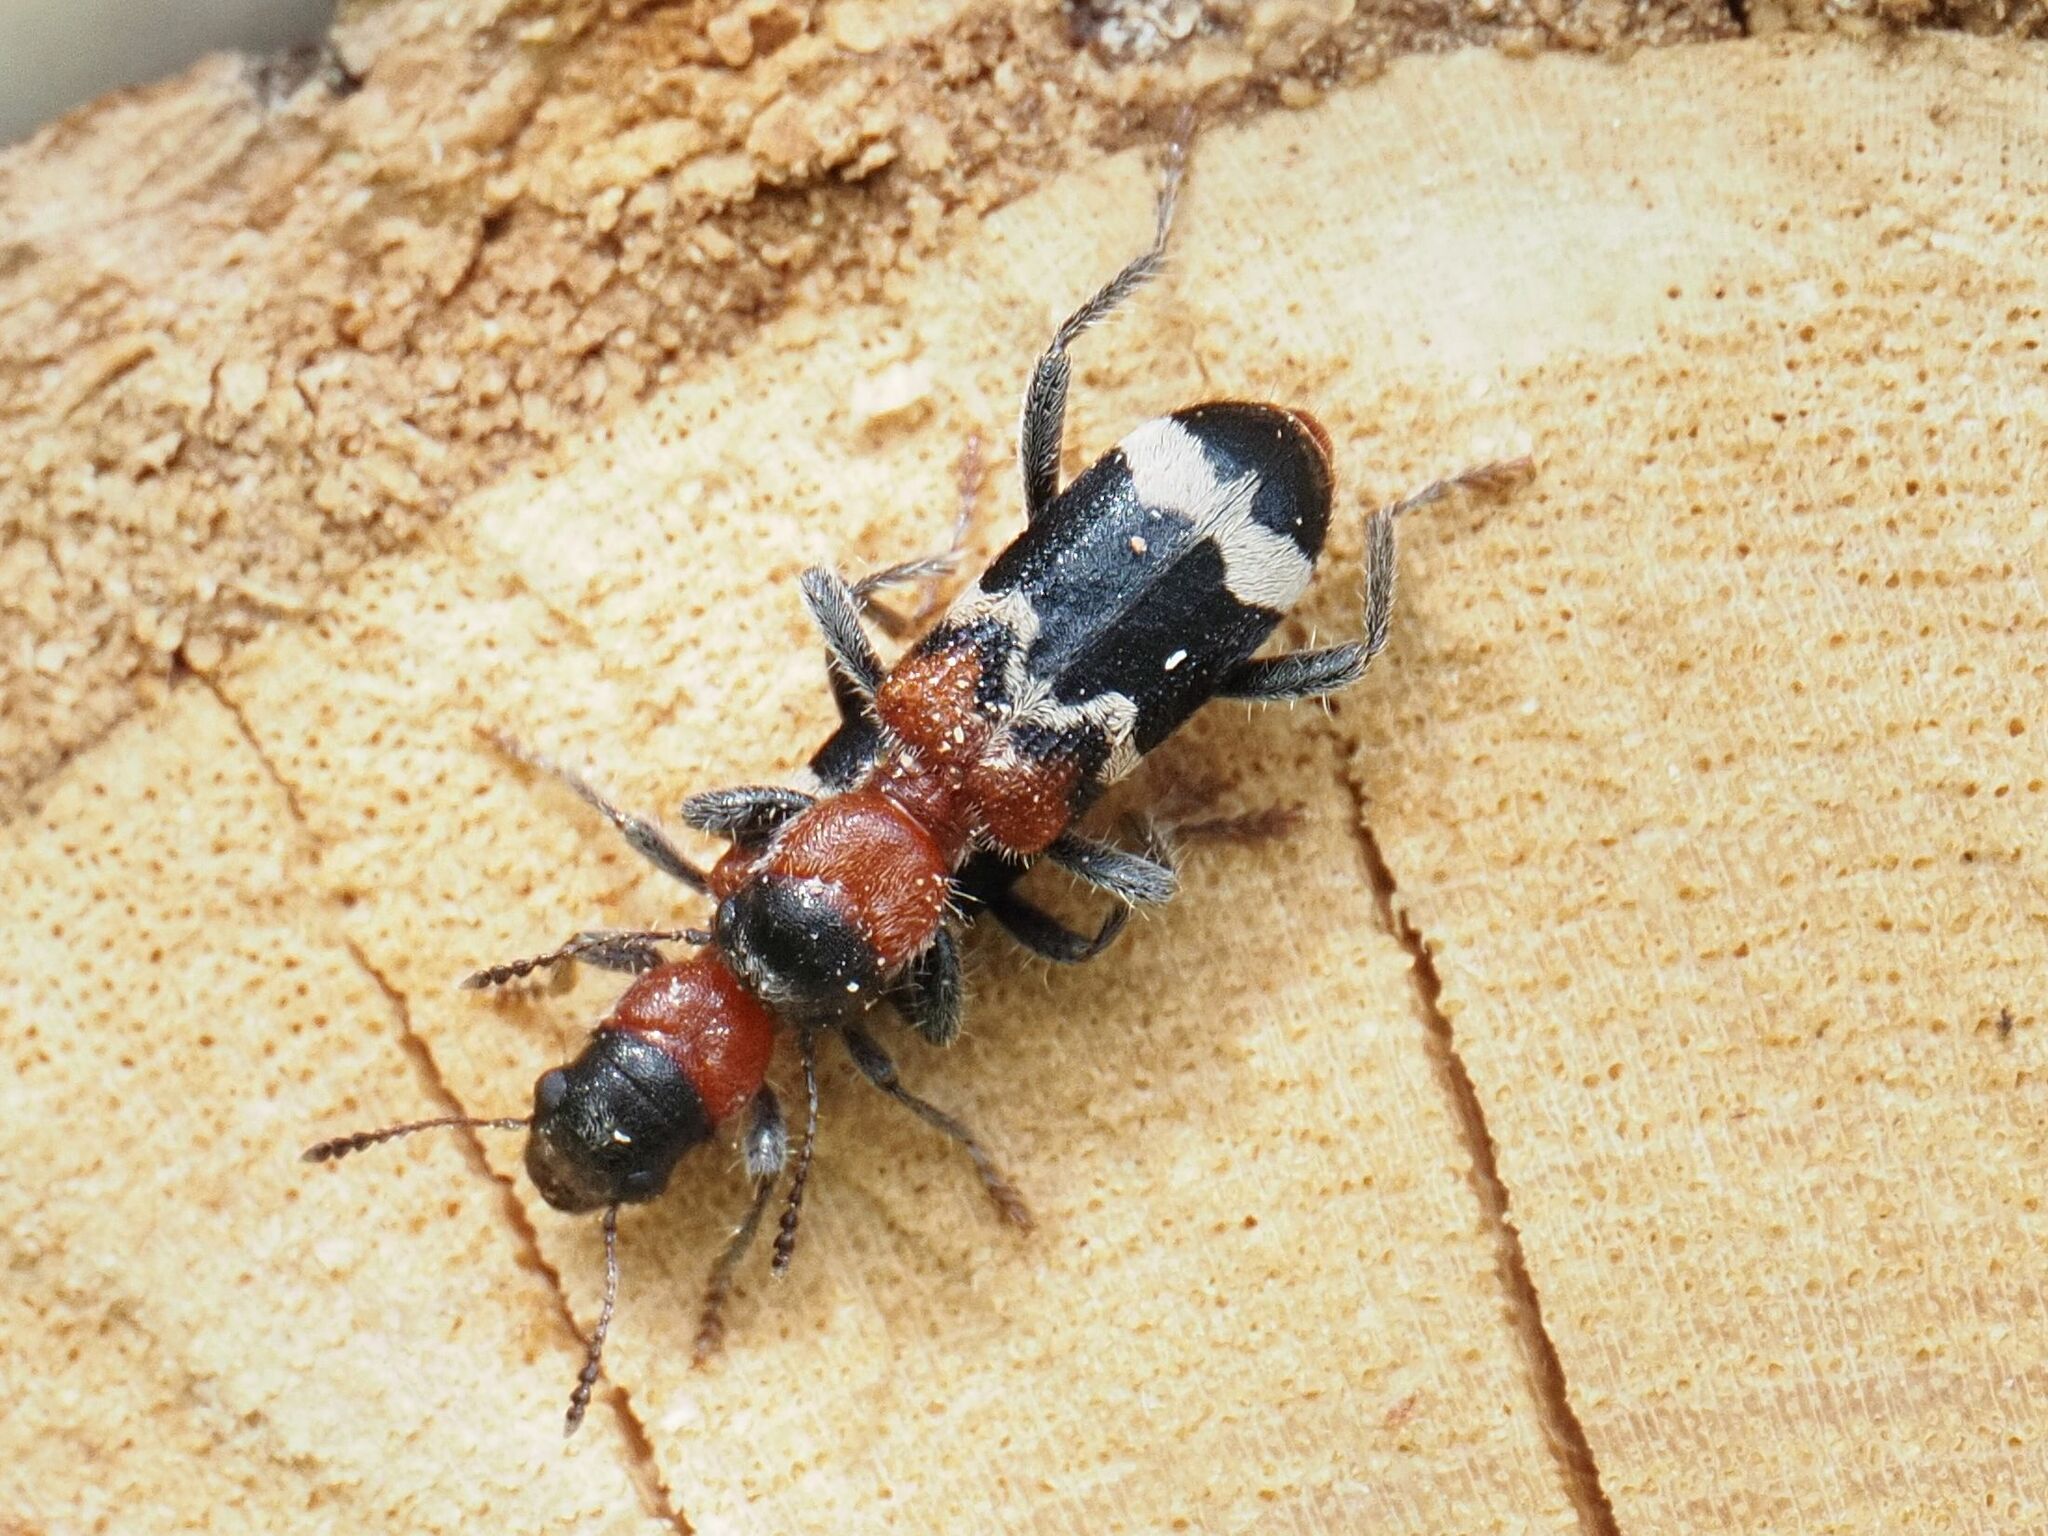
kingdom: Animalia
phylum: Arthropoda
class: Insecta
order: Coleoptera
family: Cleridae
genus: Thanasimus
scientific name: Thanasimus formicarius
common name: Ant beetle
